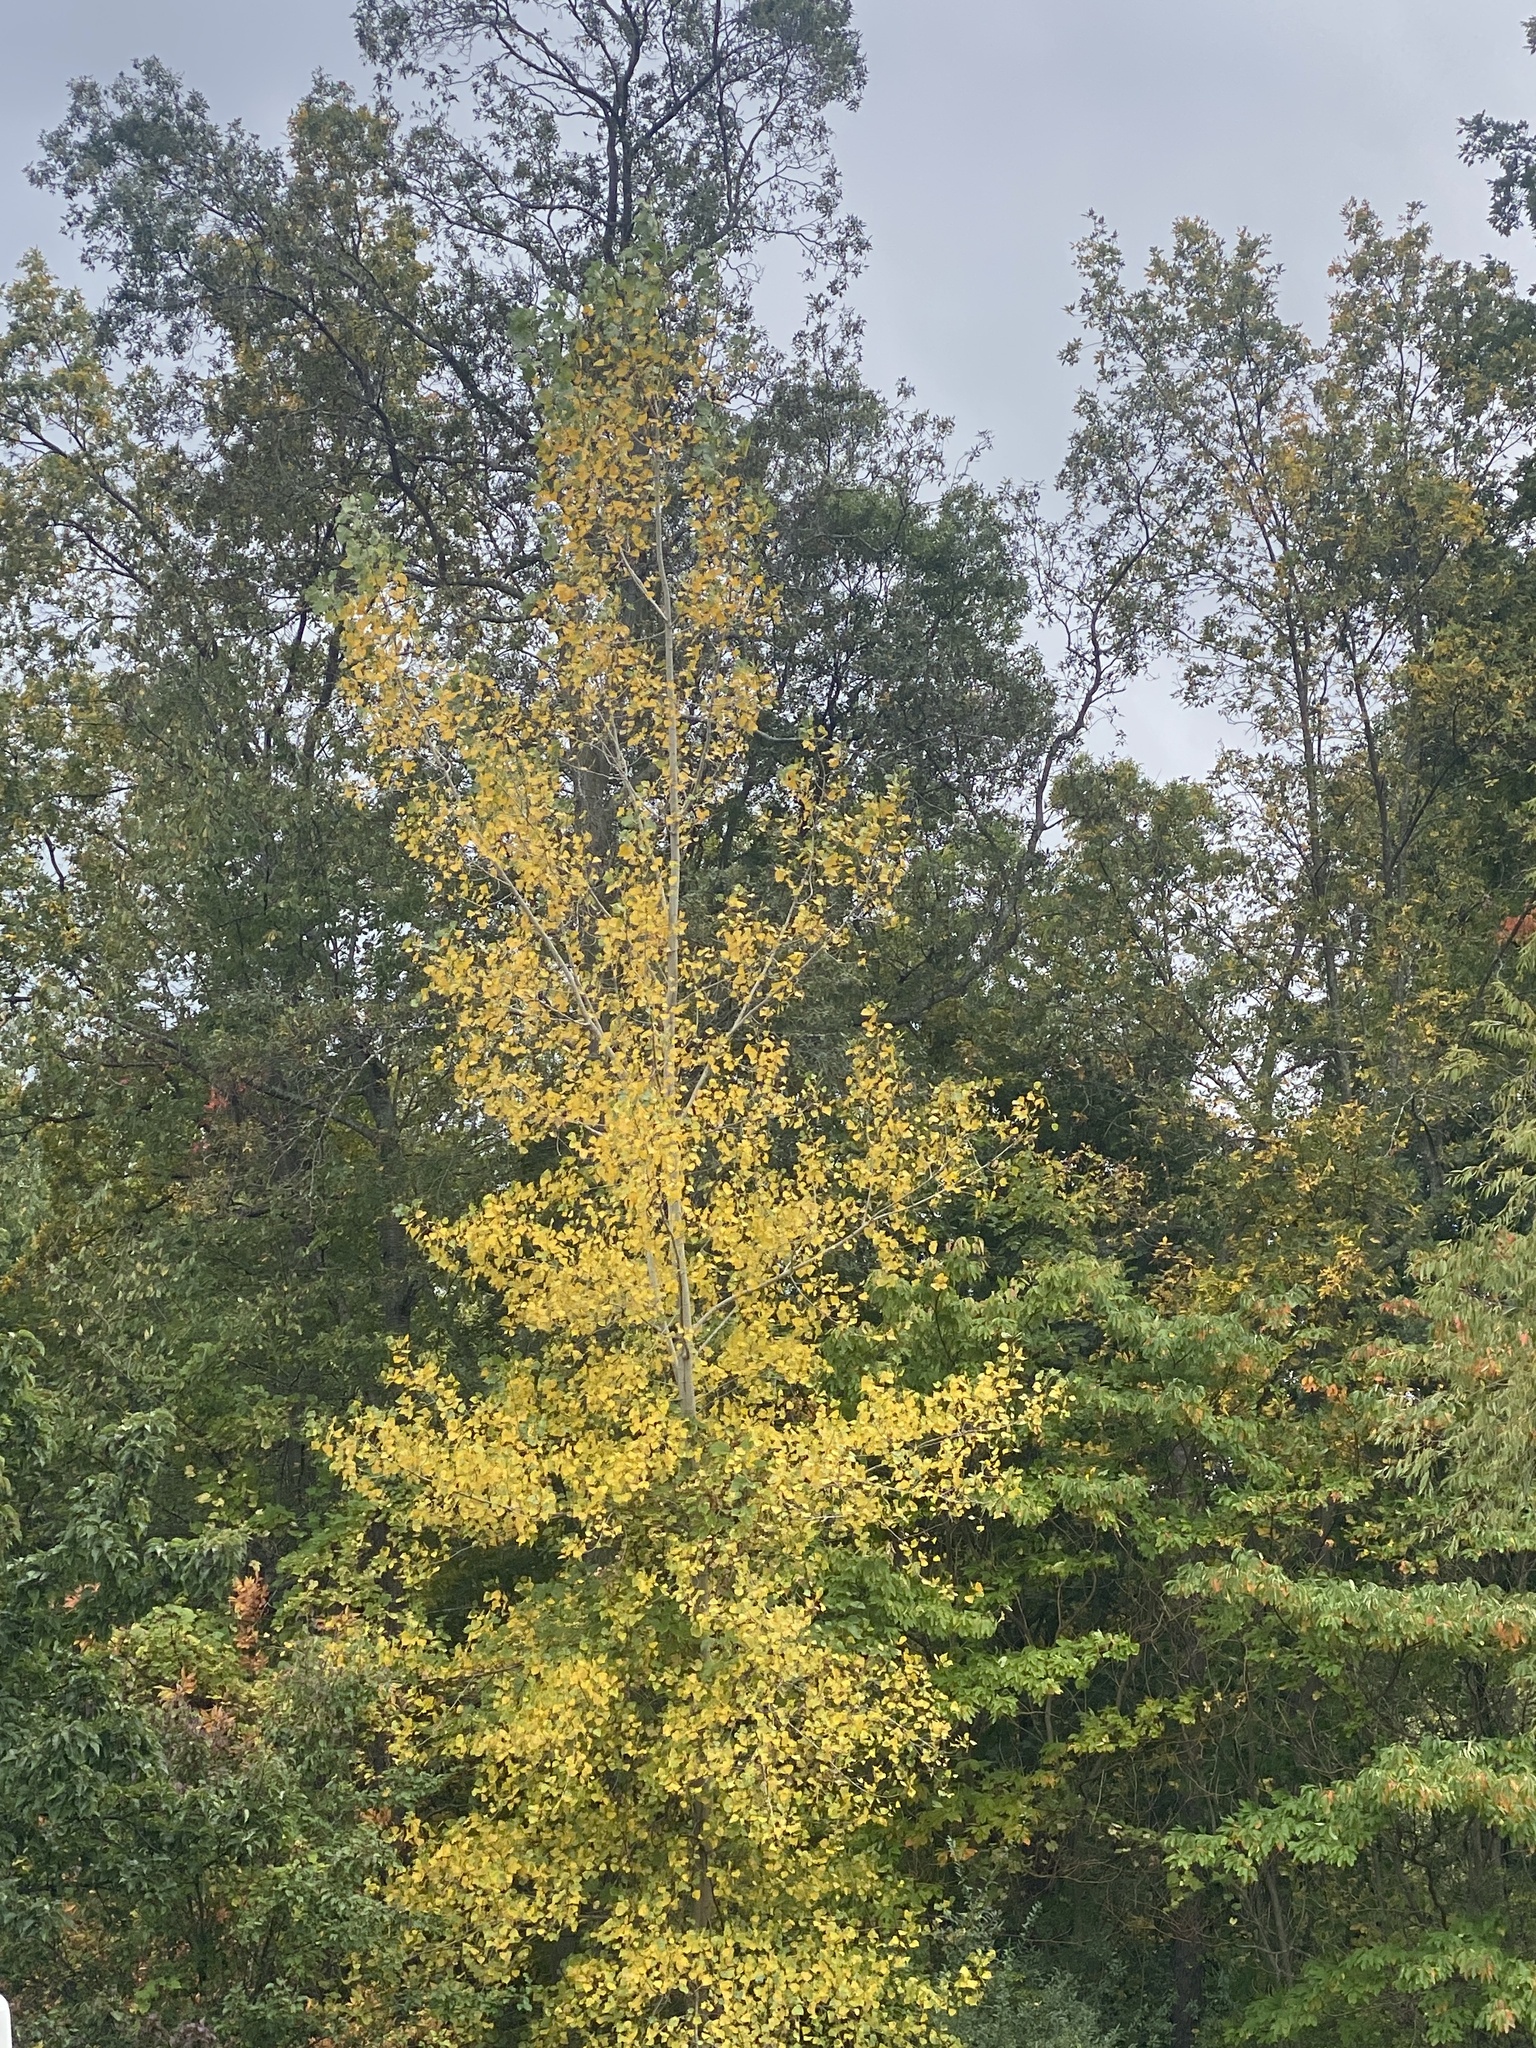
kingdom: Plantae
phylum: Tracheophyta
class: Magnoliopsida
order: Malpighiales
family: Salicaceae
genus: Populus
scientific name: Populus deltoides
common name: Eastern cottonwood
